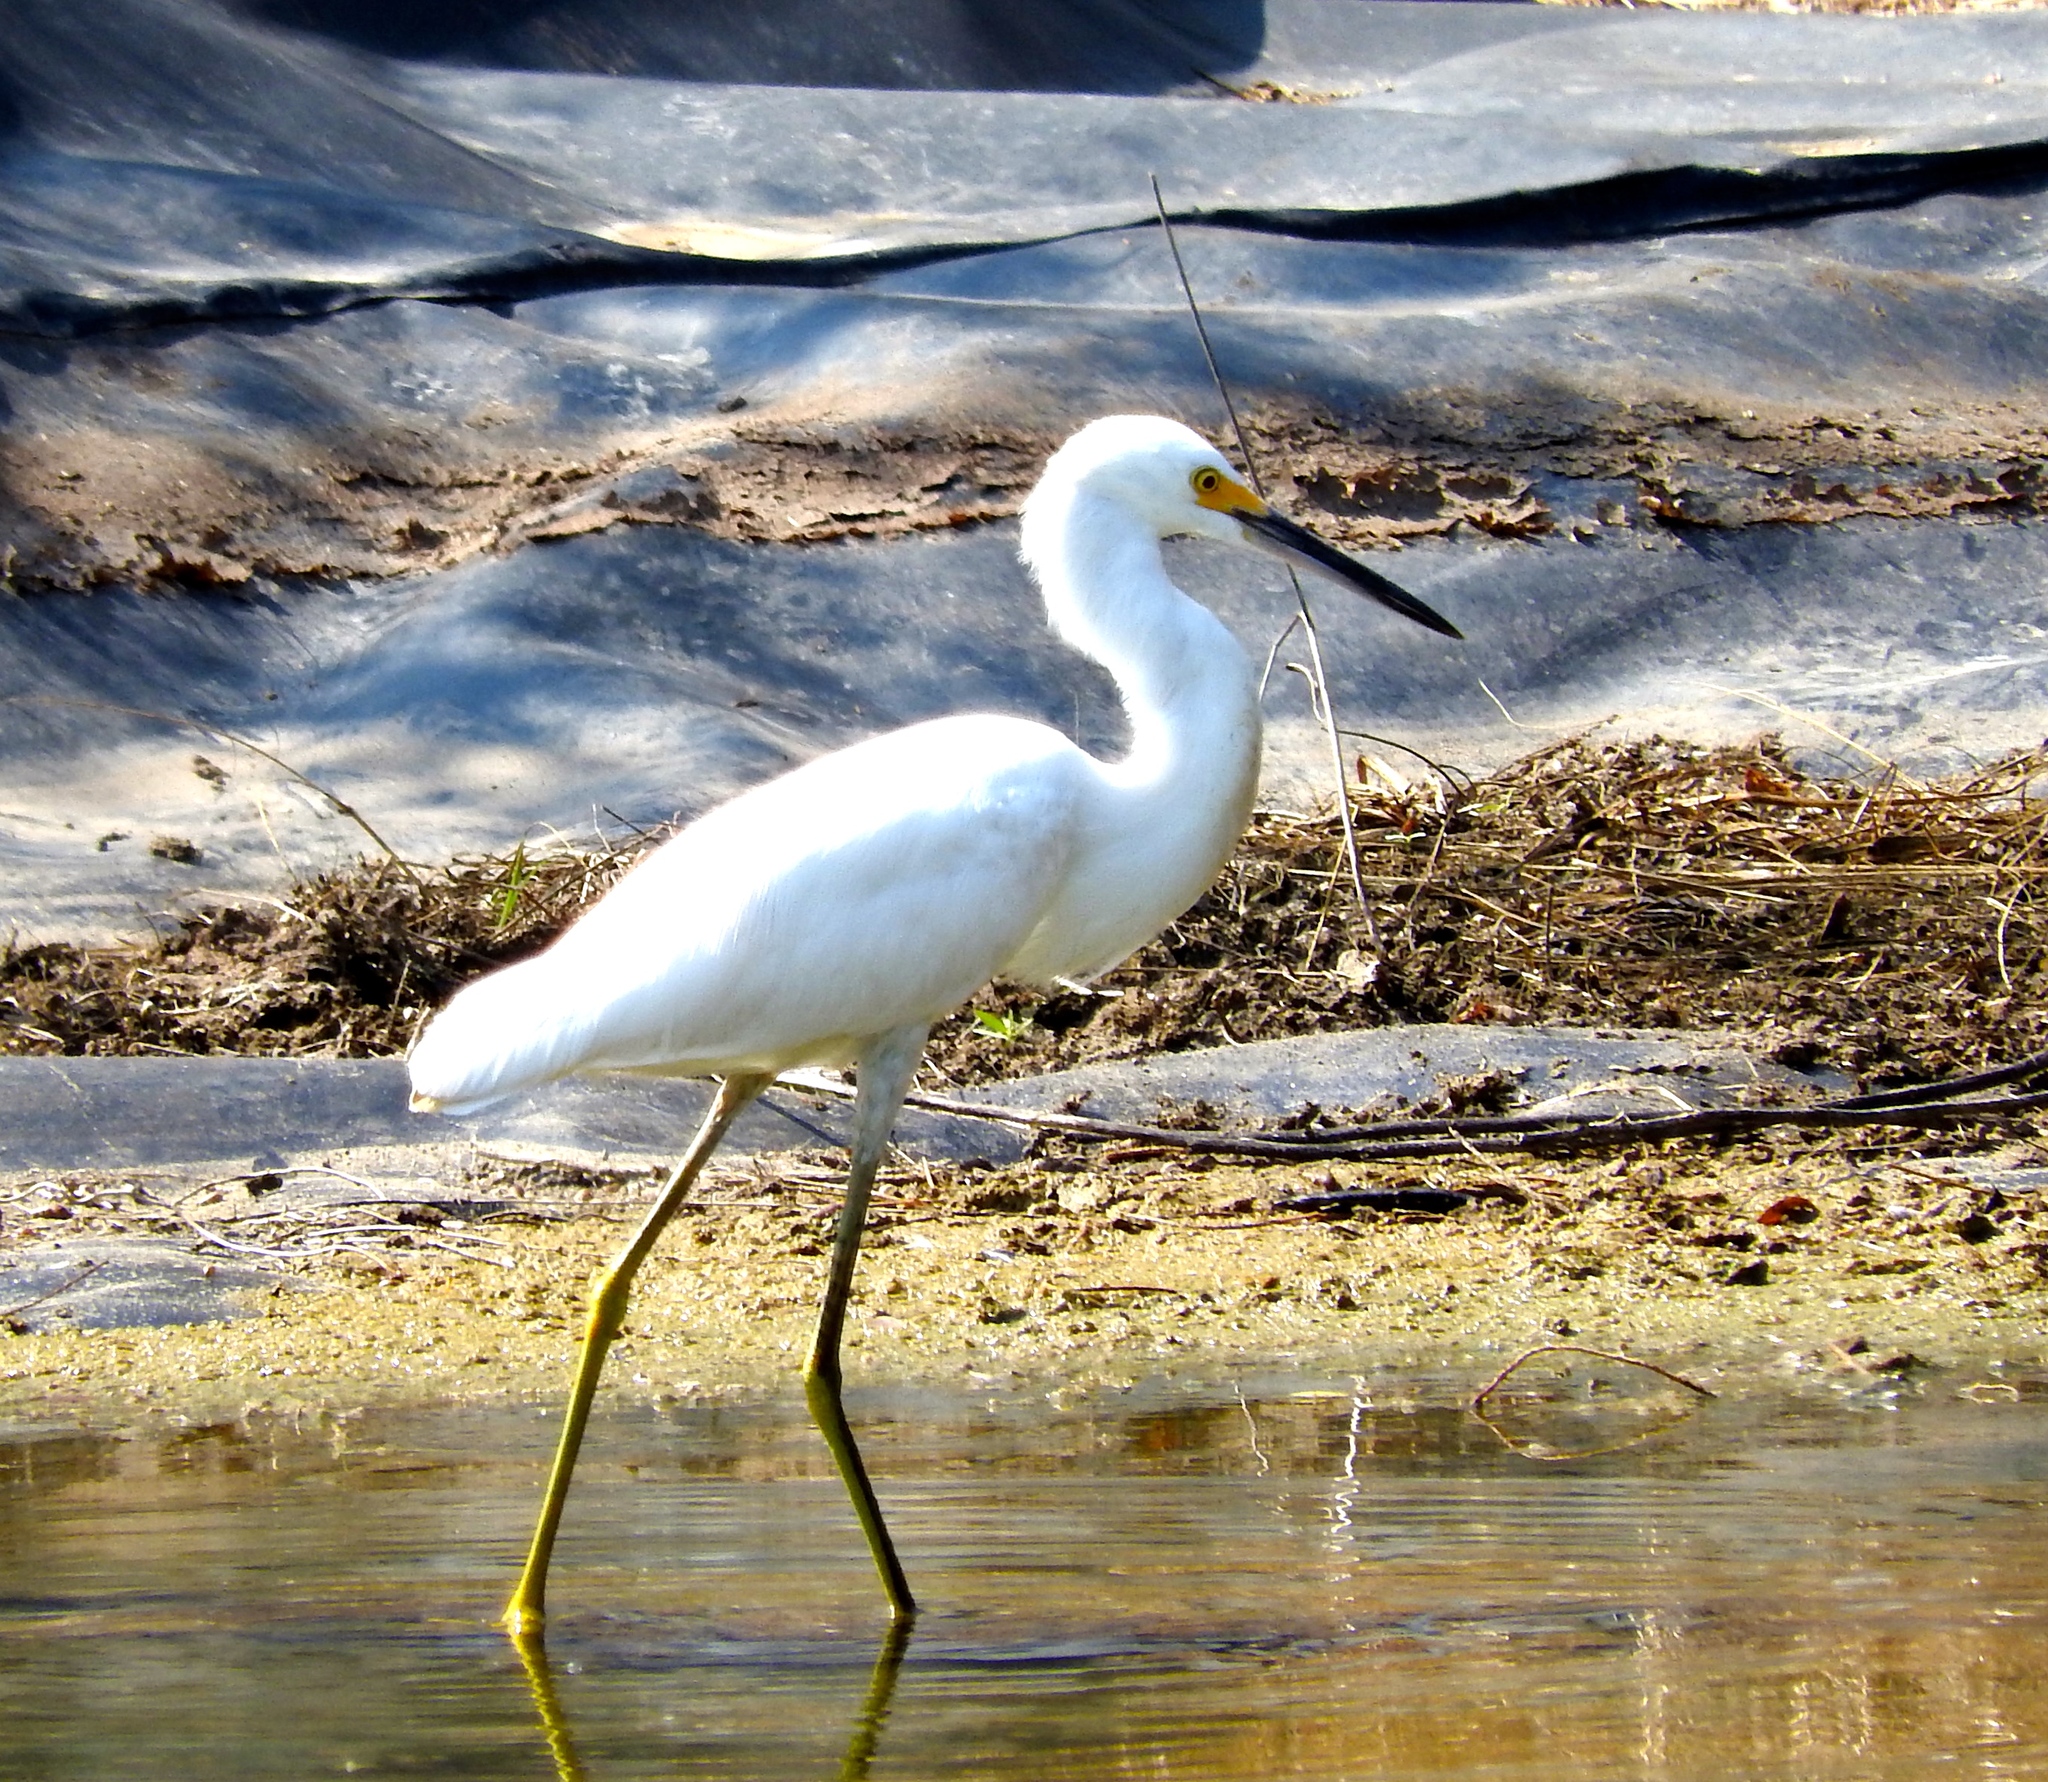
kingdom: Animalia
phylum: Chordata
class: Aves
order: Pelecaniformes
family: Ardeidae
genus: Egretta
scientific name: Egretta thula
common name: Snowy egret
